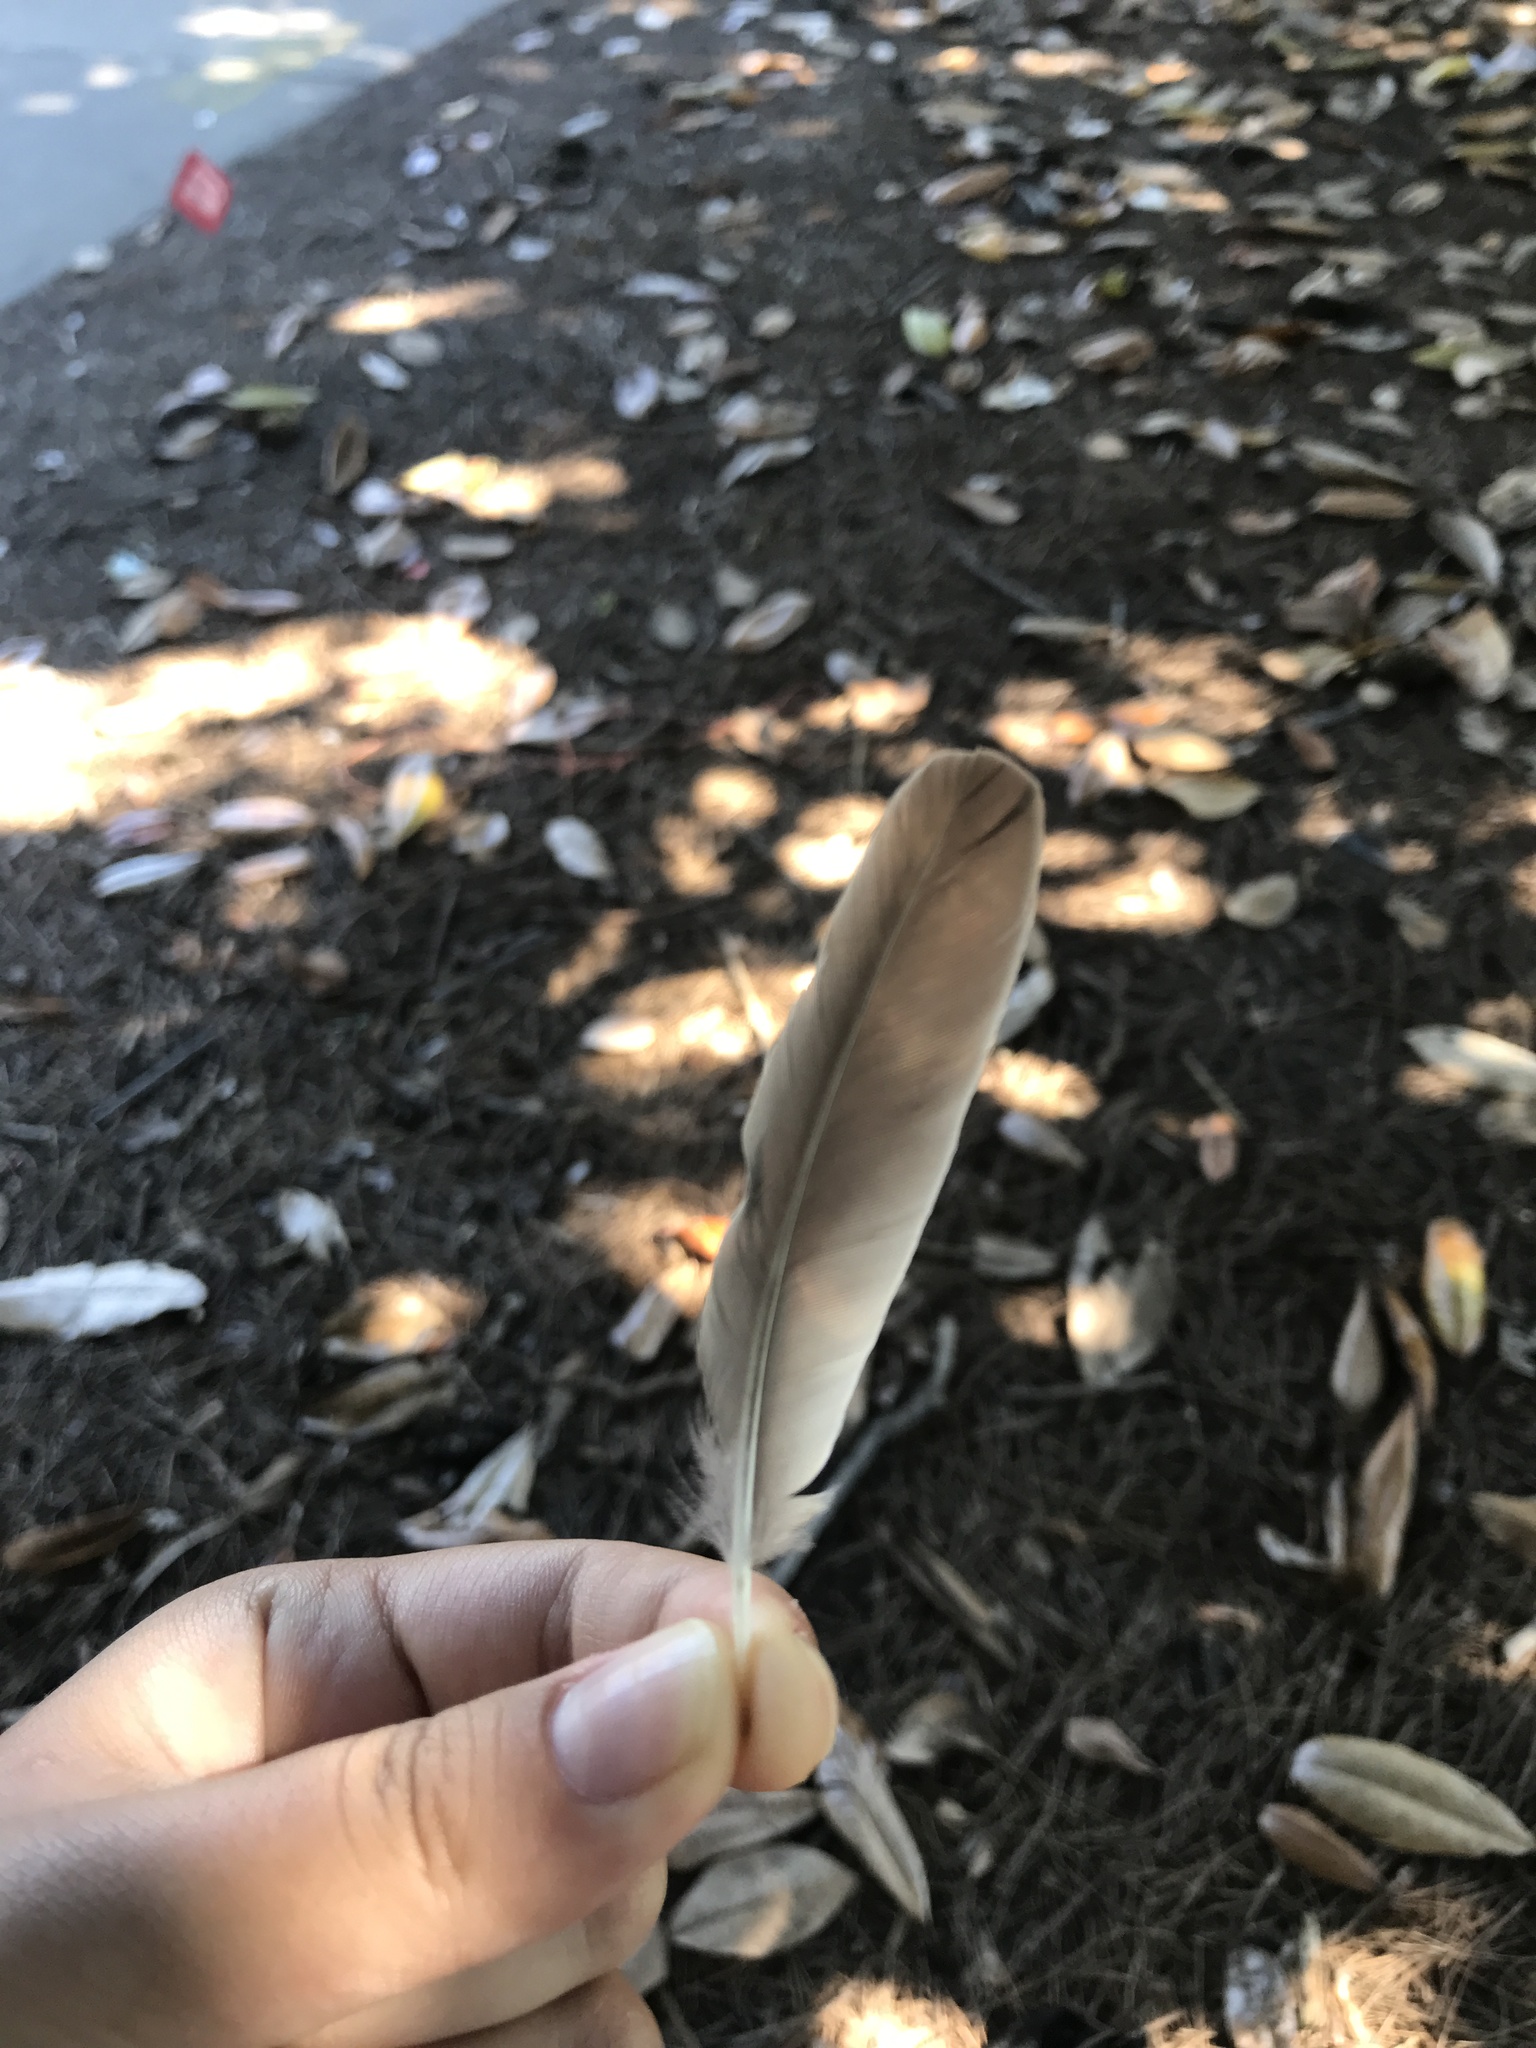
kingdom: Animalia
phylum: Chordata
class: Aves
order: Passeriformes
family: Turdidae
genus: Turdus
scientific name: Turdus migratorius
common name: American robin
